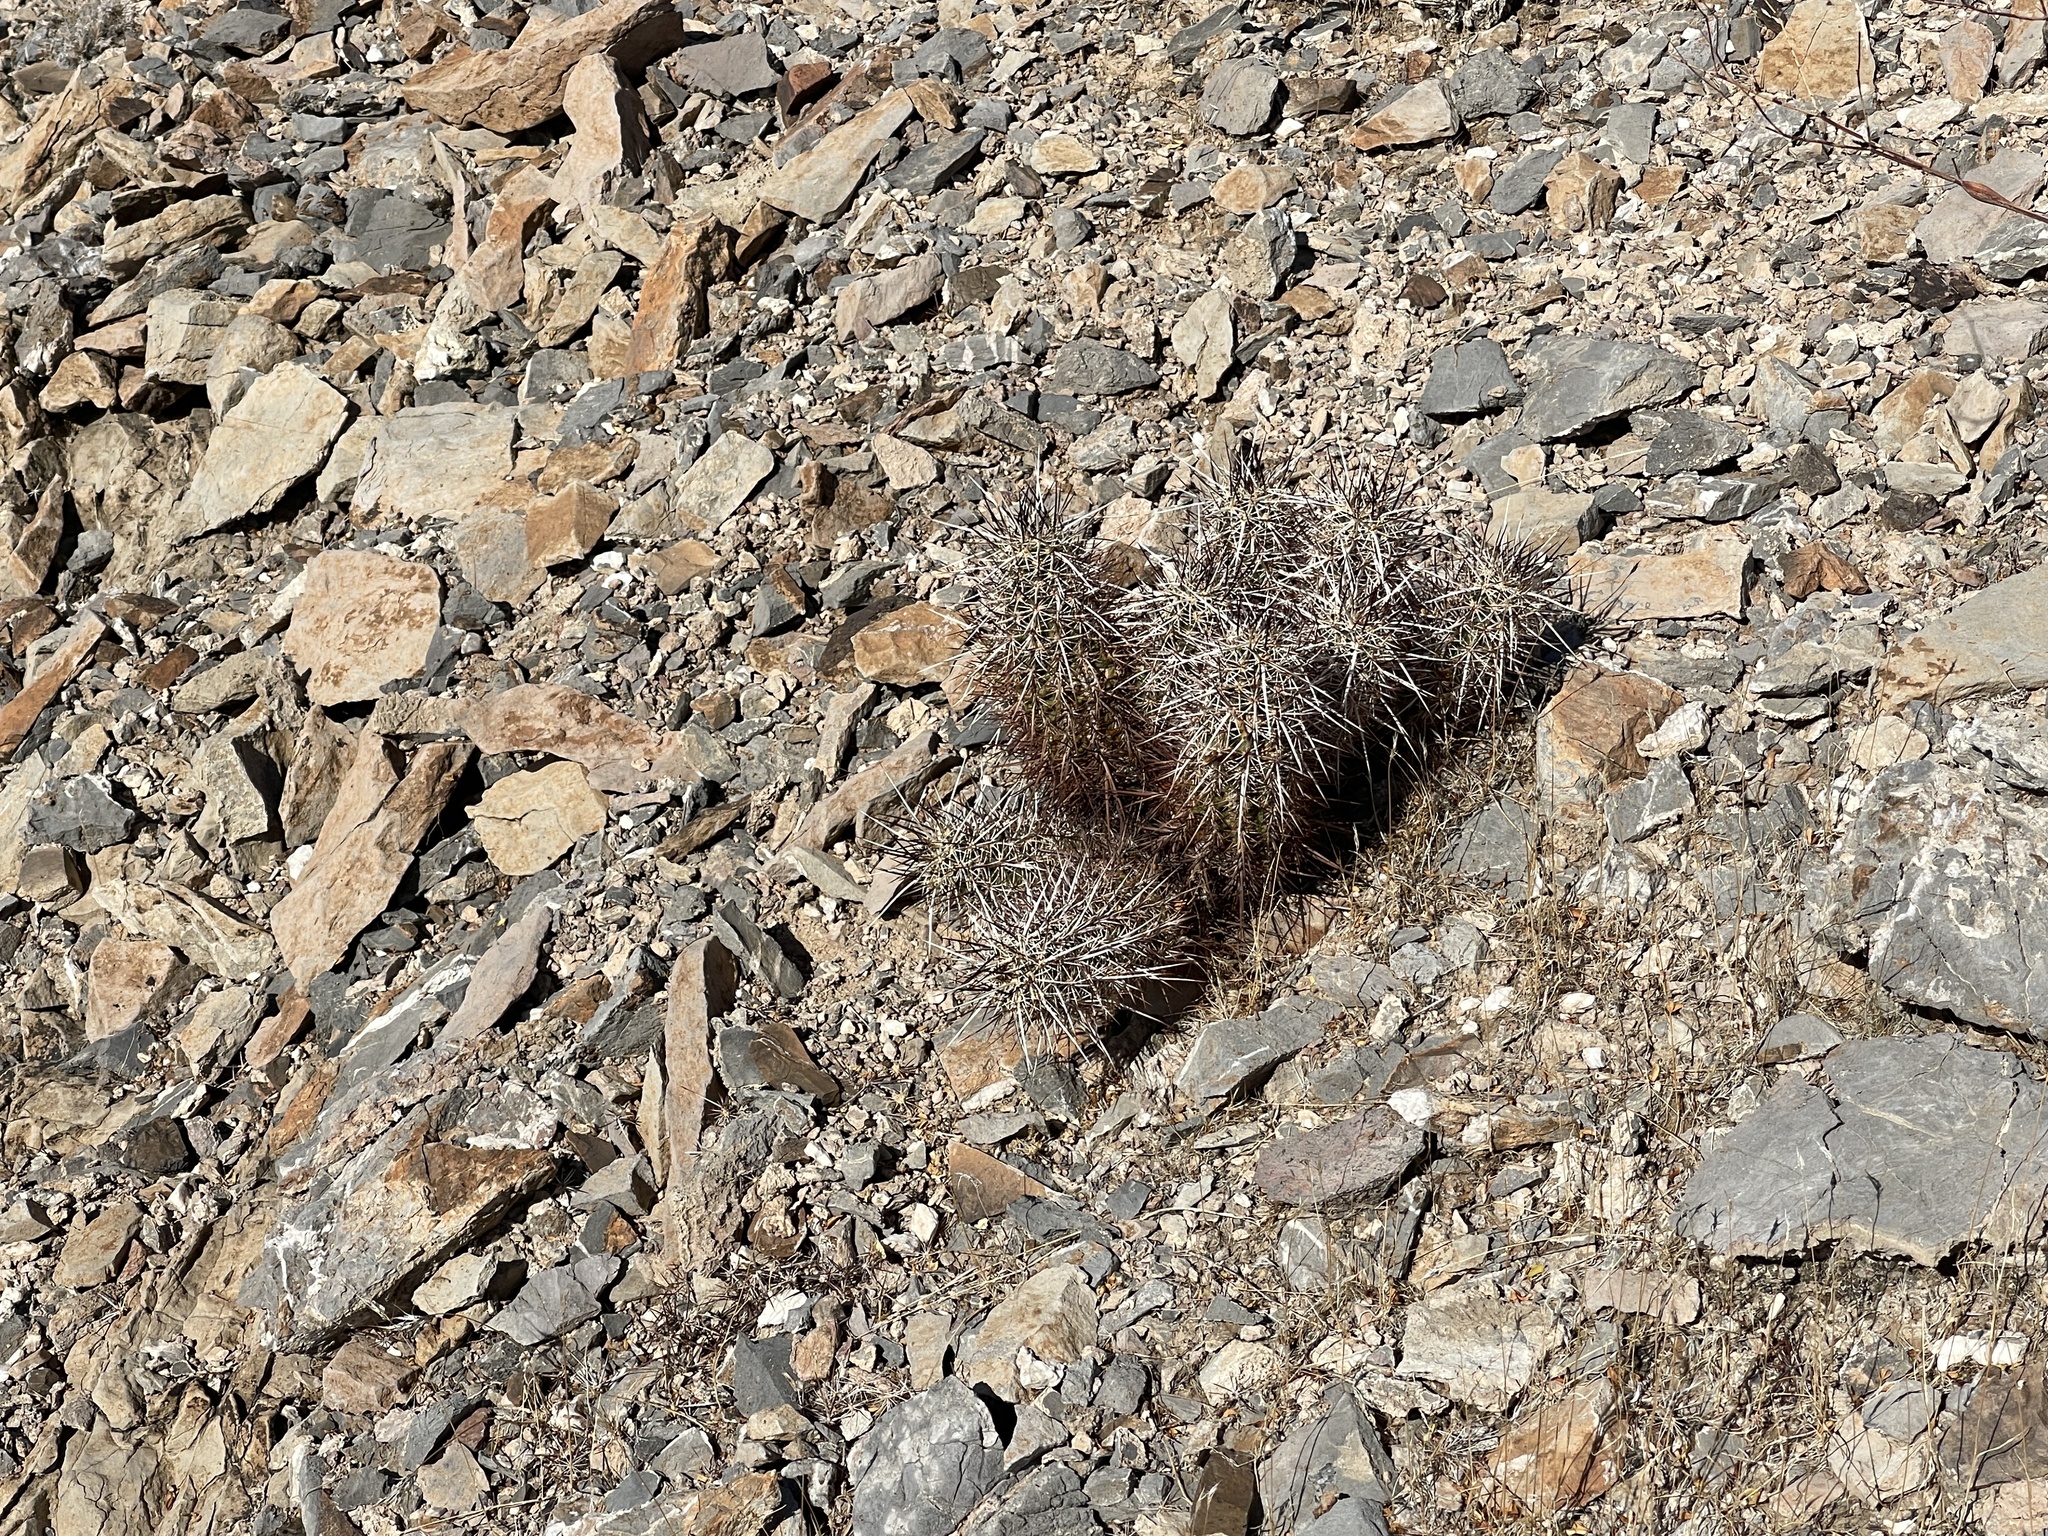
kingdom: Plantae
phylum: Tracheophyta
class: Magnoliopsida
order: Caryophyllales
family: Cactaceae
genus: Echinocereus
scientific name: Echinocereus engelmannii
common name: Engelmann's hedgehog cactus
